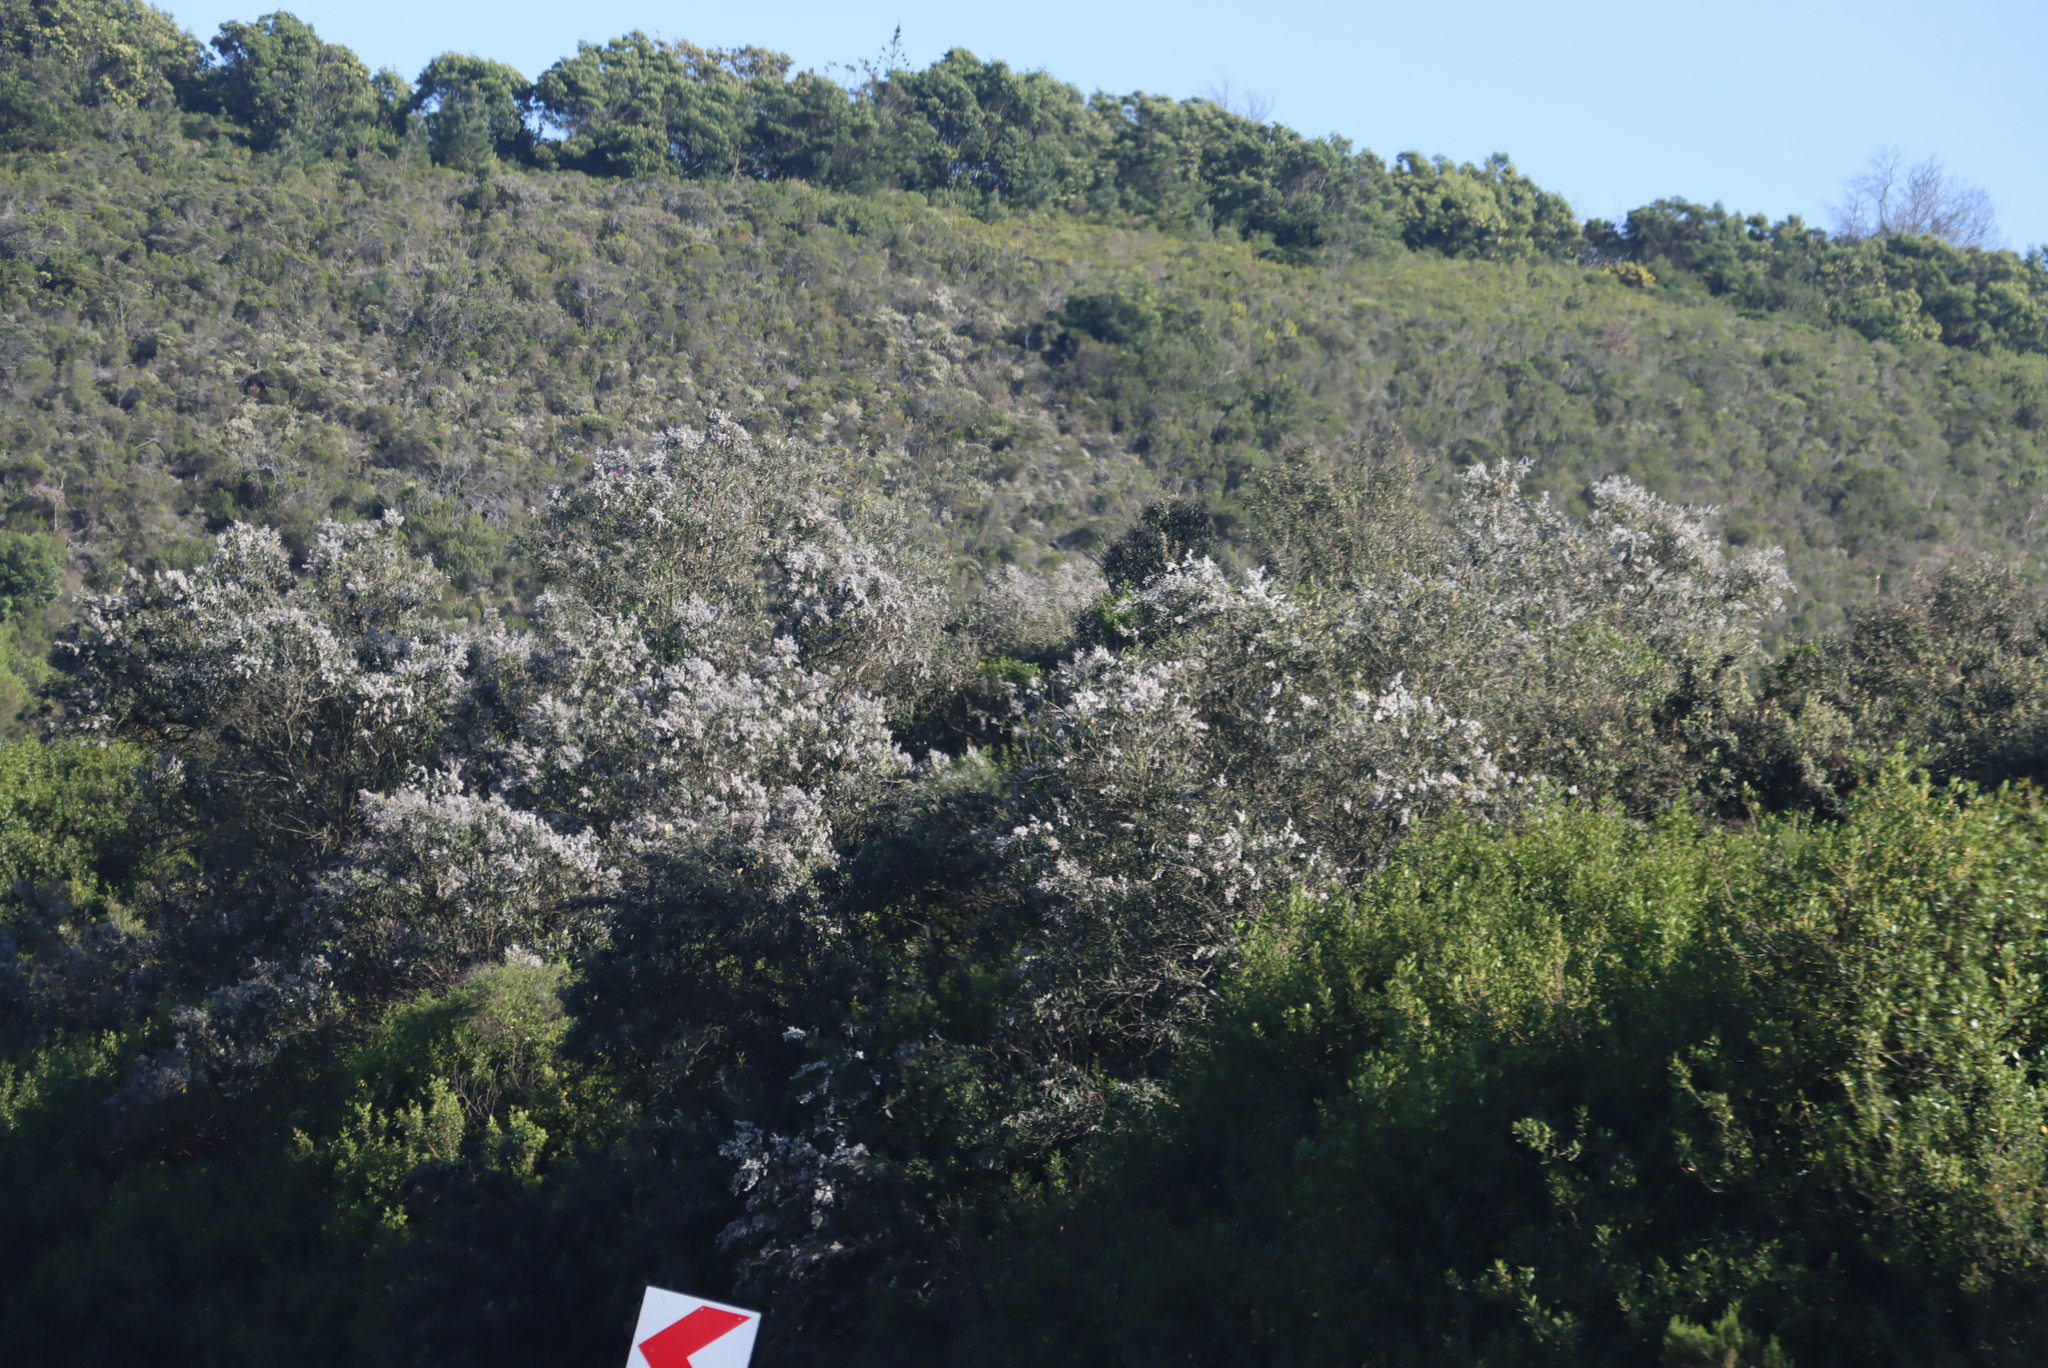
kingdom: Plantae
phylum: Tracheophyta
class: Magnoliopsida
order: Asterales
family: Asteraceae
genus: Tarchonanthus
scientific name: Tarchonanthus littoralis
